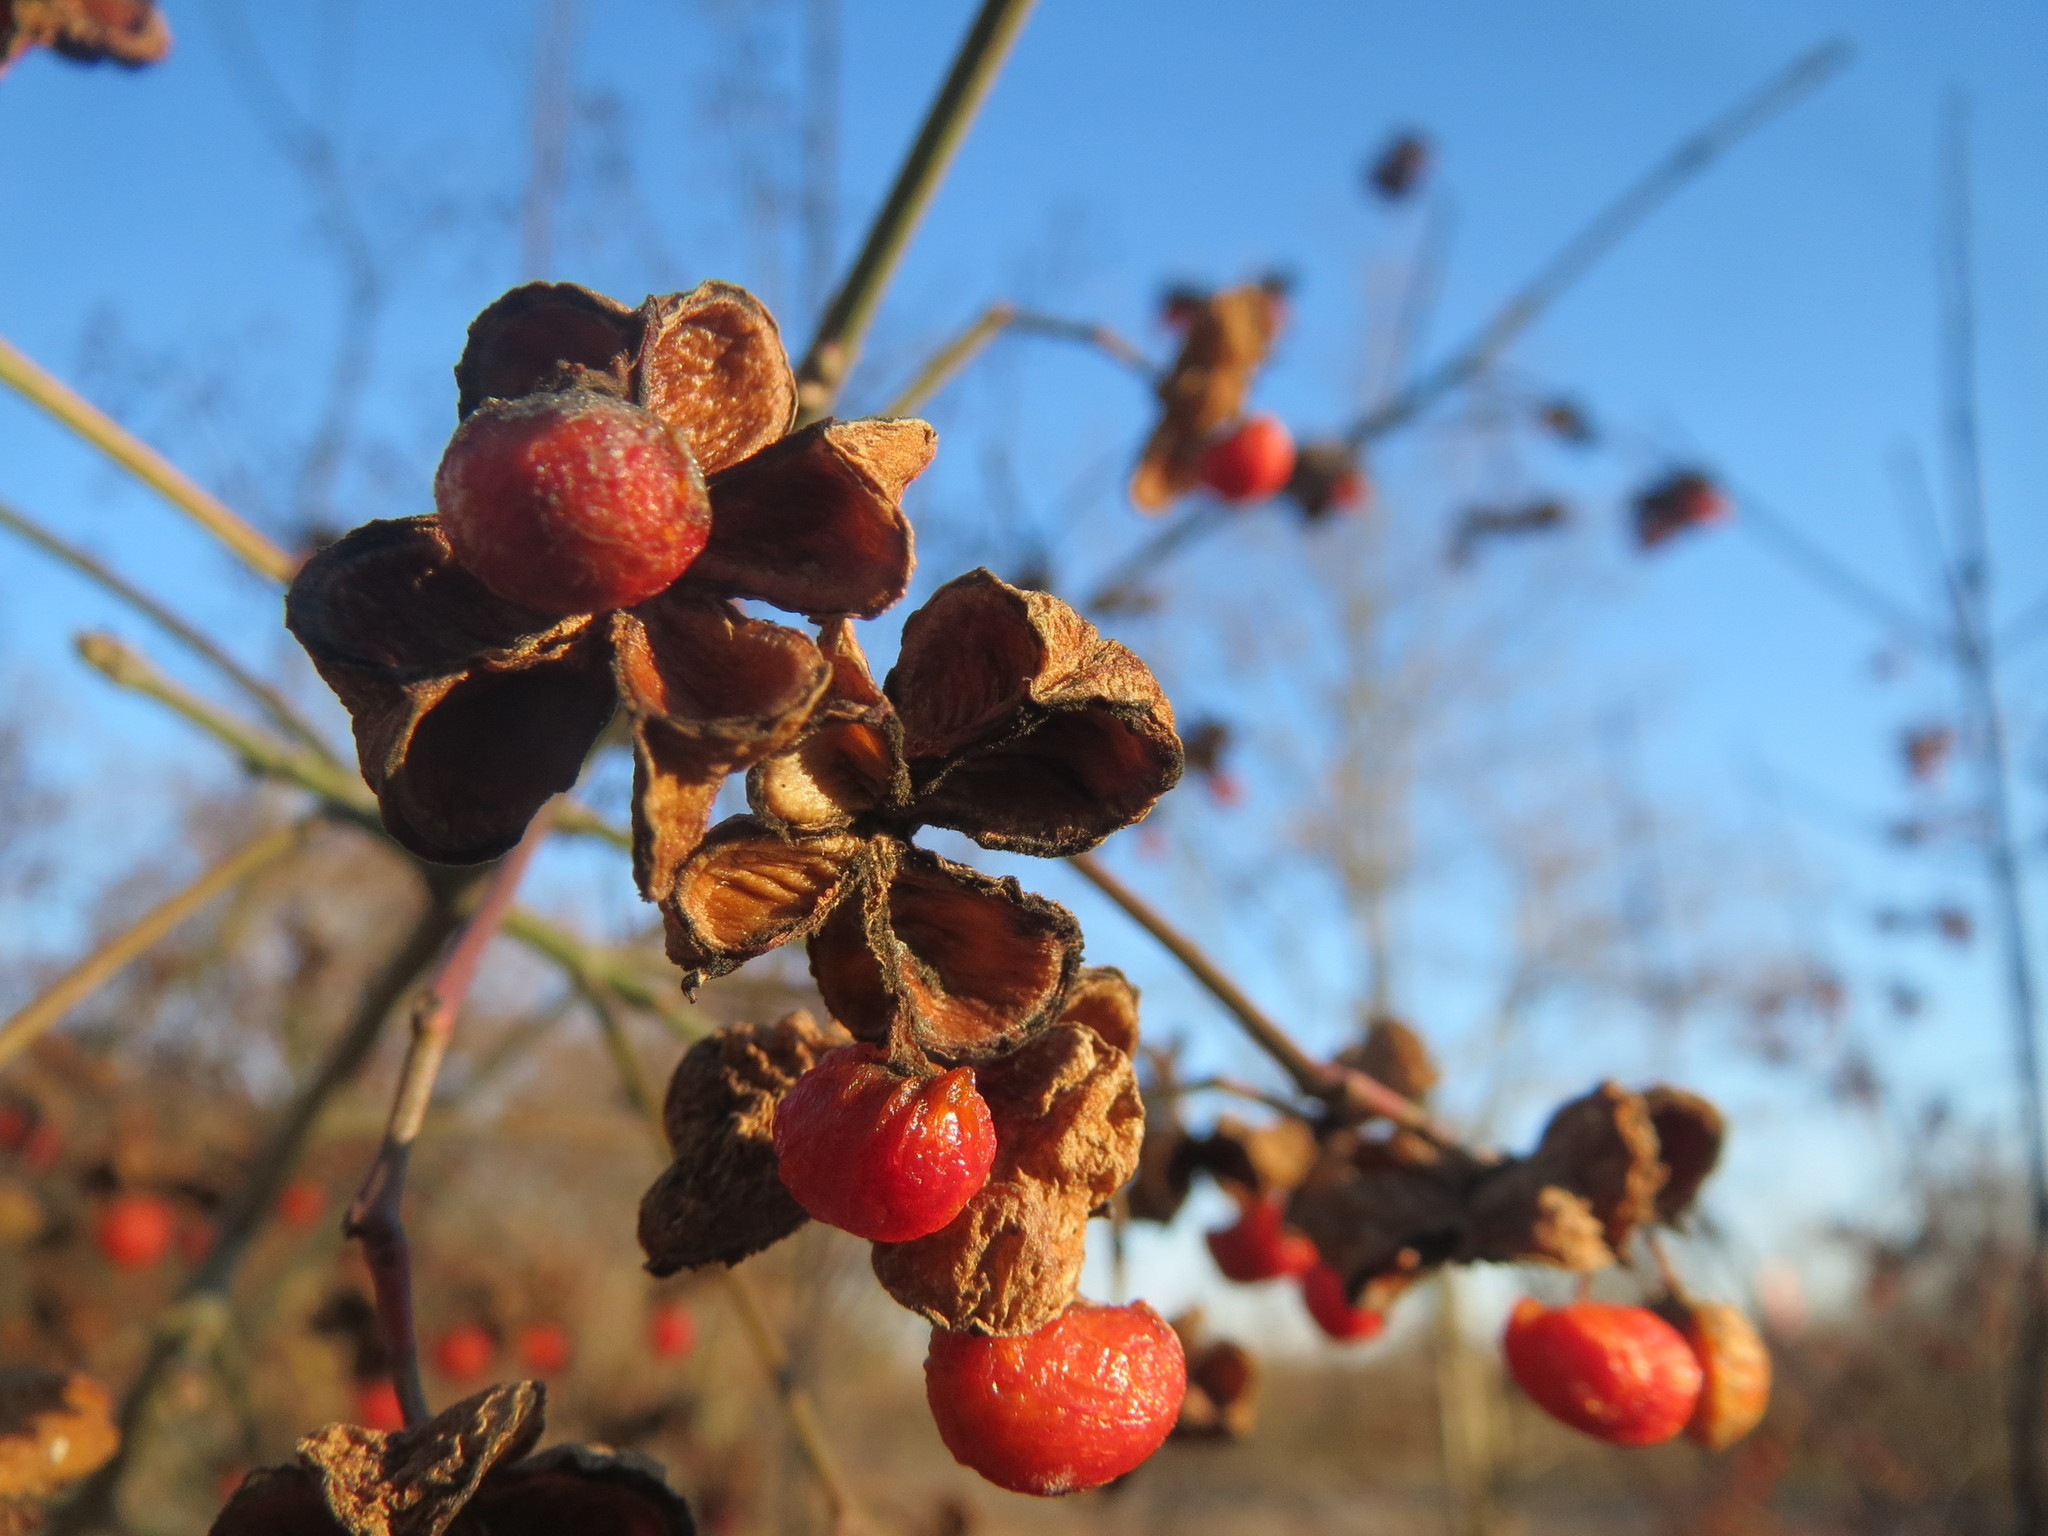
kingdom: Plantae
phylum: Tracheophyta
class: Magnoliopsida
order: Celastrales
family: Celastraceae
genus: Euonymus
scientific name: Euonymus europaeus
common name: Spindle
